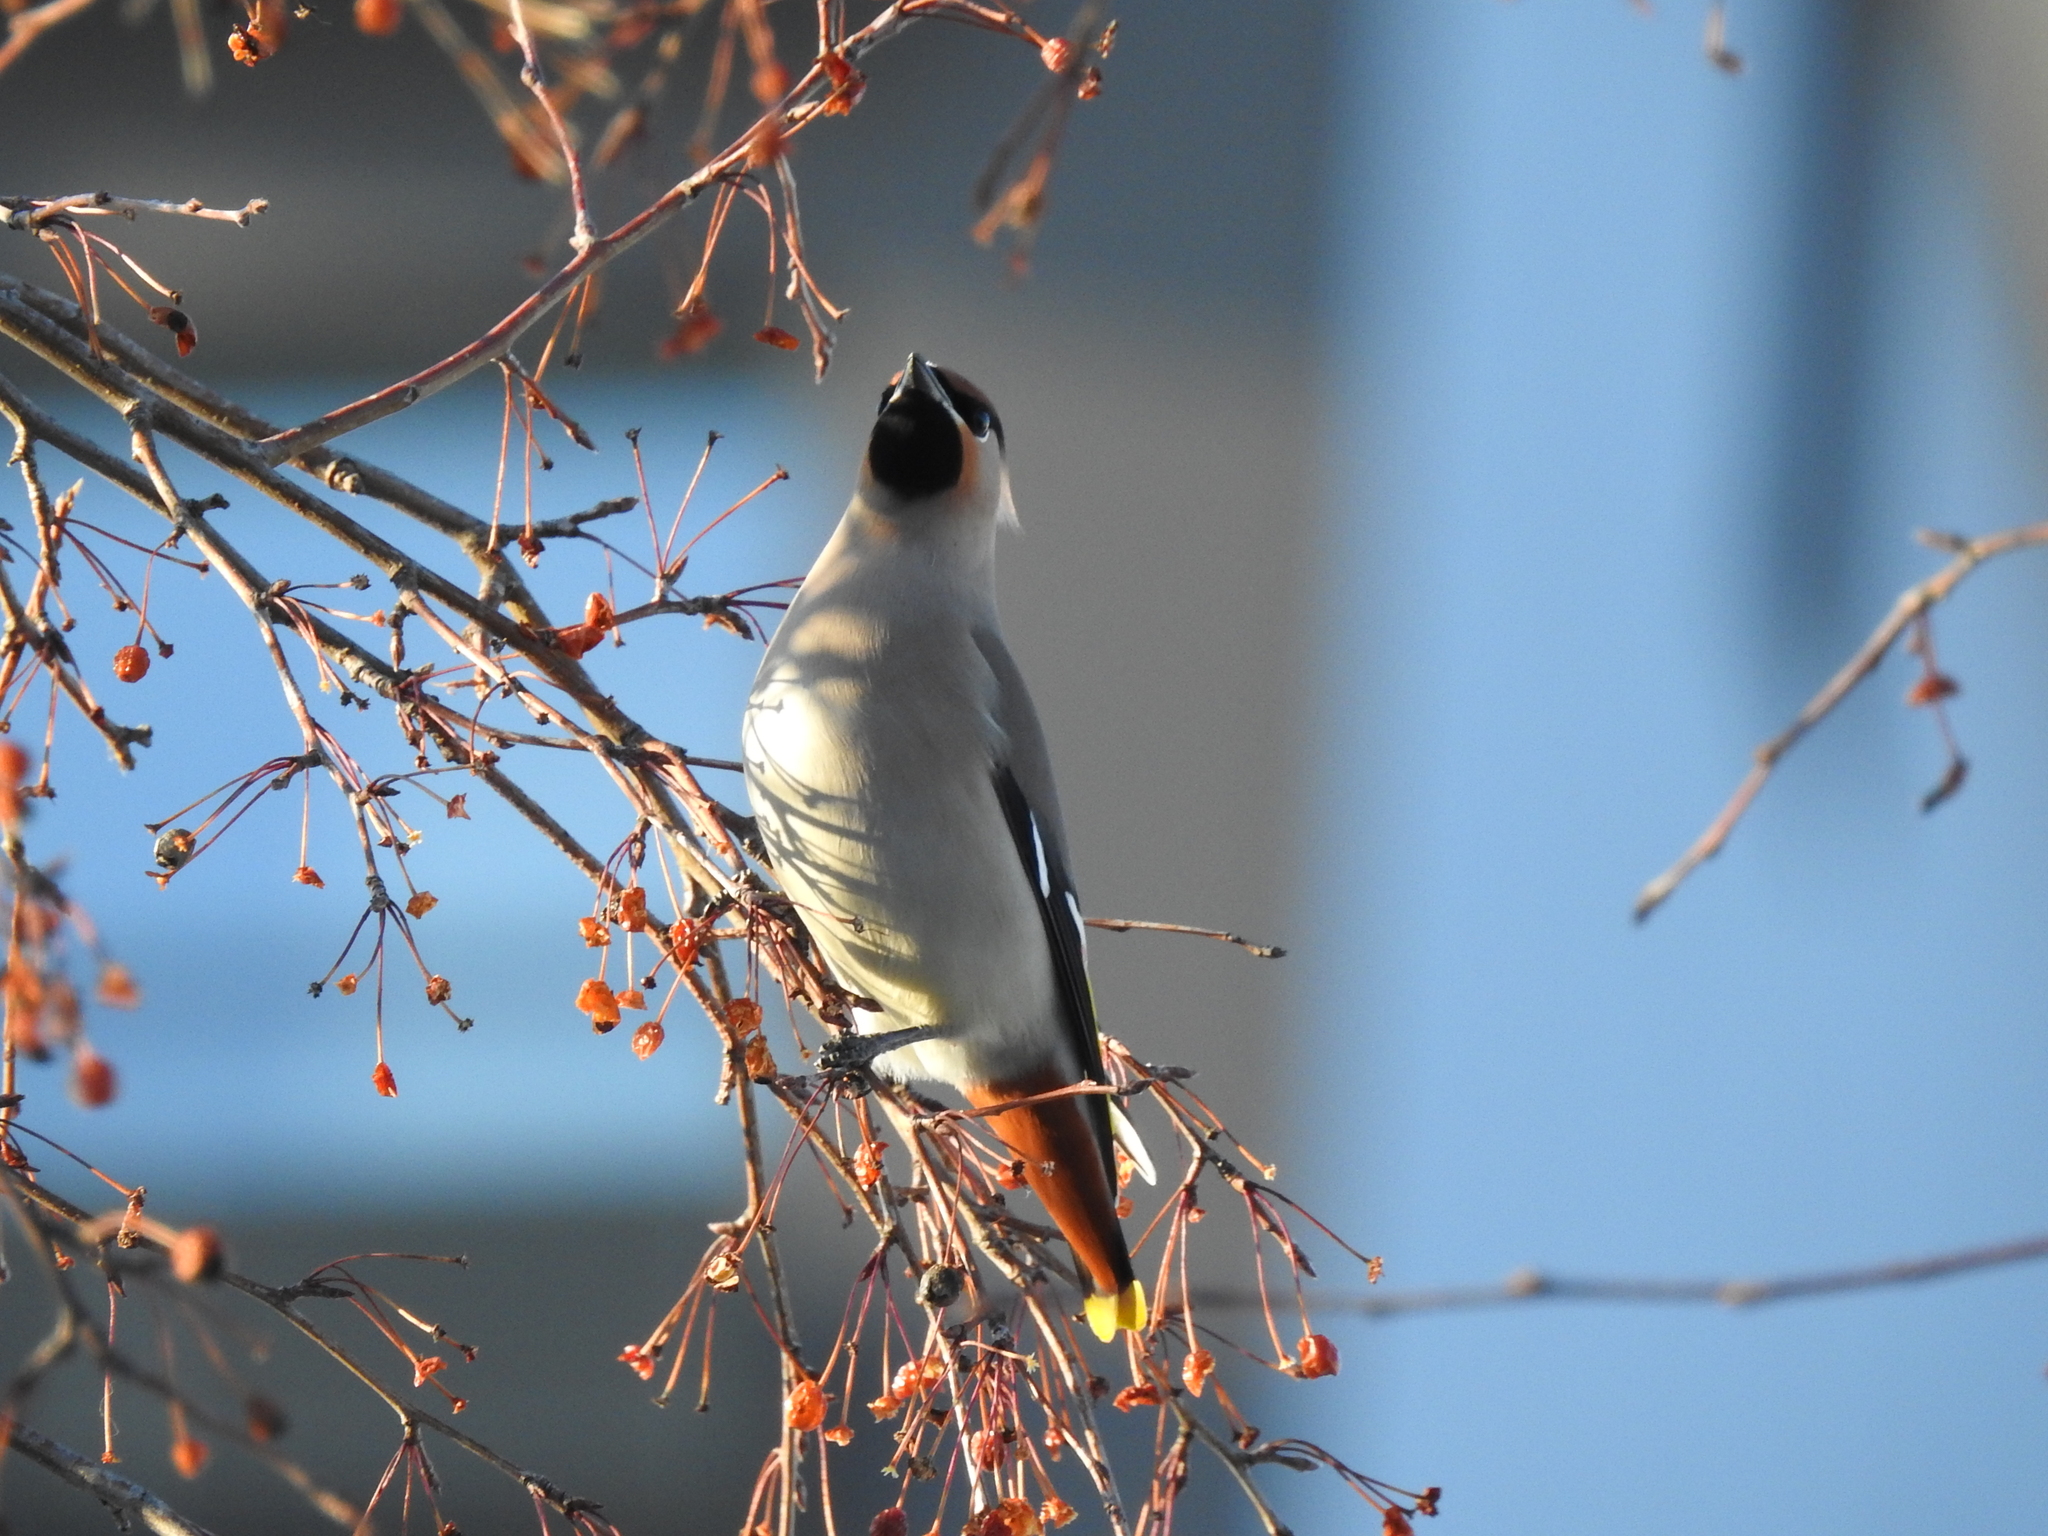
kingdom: Animalia
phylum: Chordata
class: Aves
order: Passeriformes
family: Bombycillidae
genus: Bombycilla
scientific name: Bombycilla garrulus
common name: Bohemian waxwing
